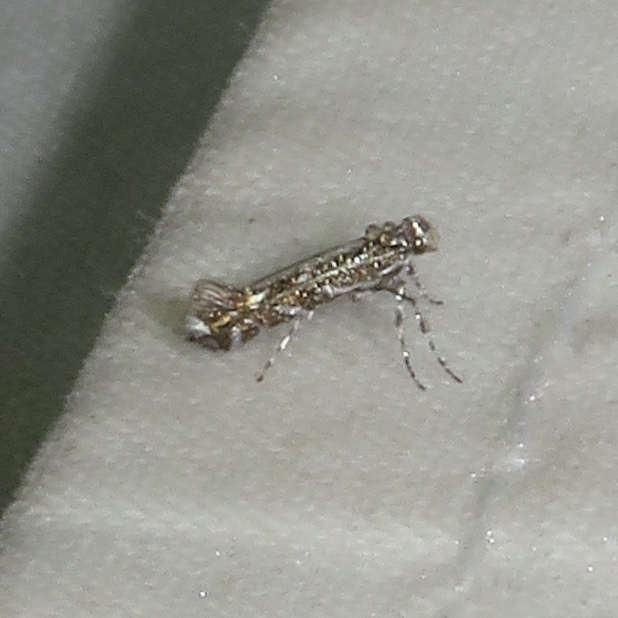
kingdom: Animalia
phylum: Arthropoda
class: Insecta
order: Lepidoptera
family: Gracillariidae
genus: Parectopa
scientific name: Parectopa plantaginisella
